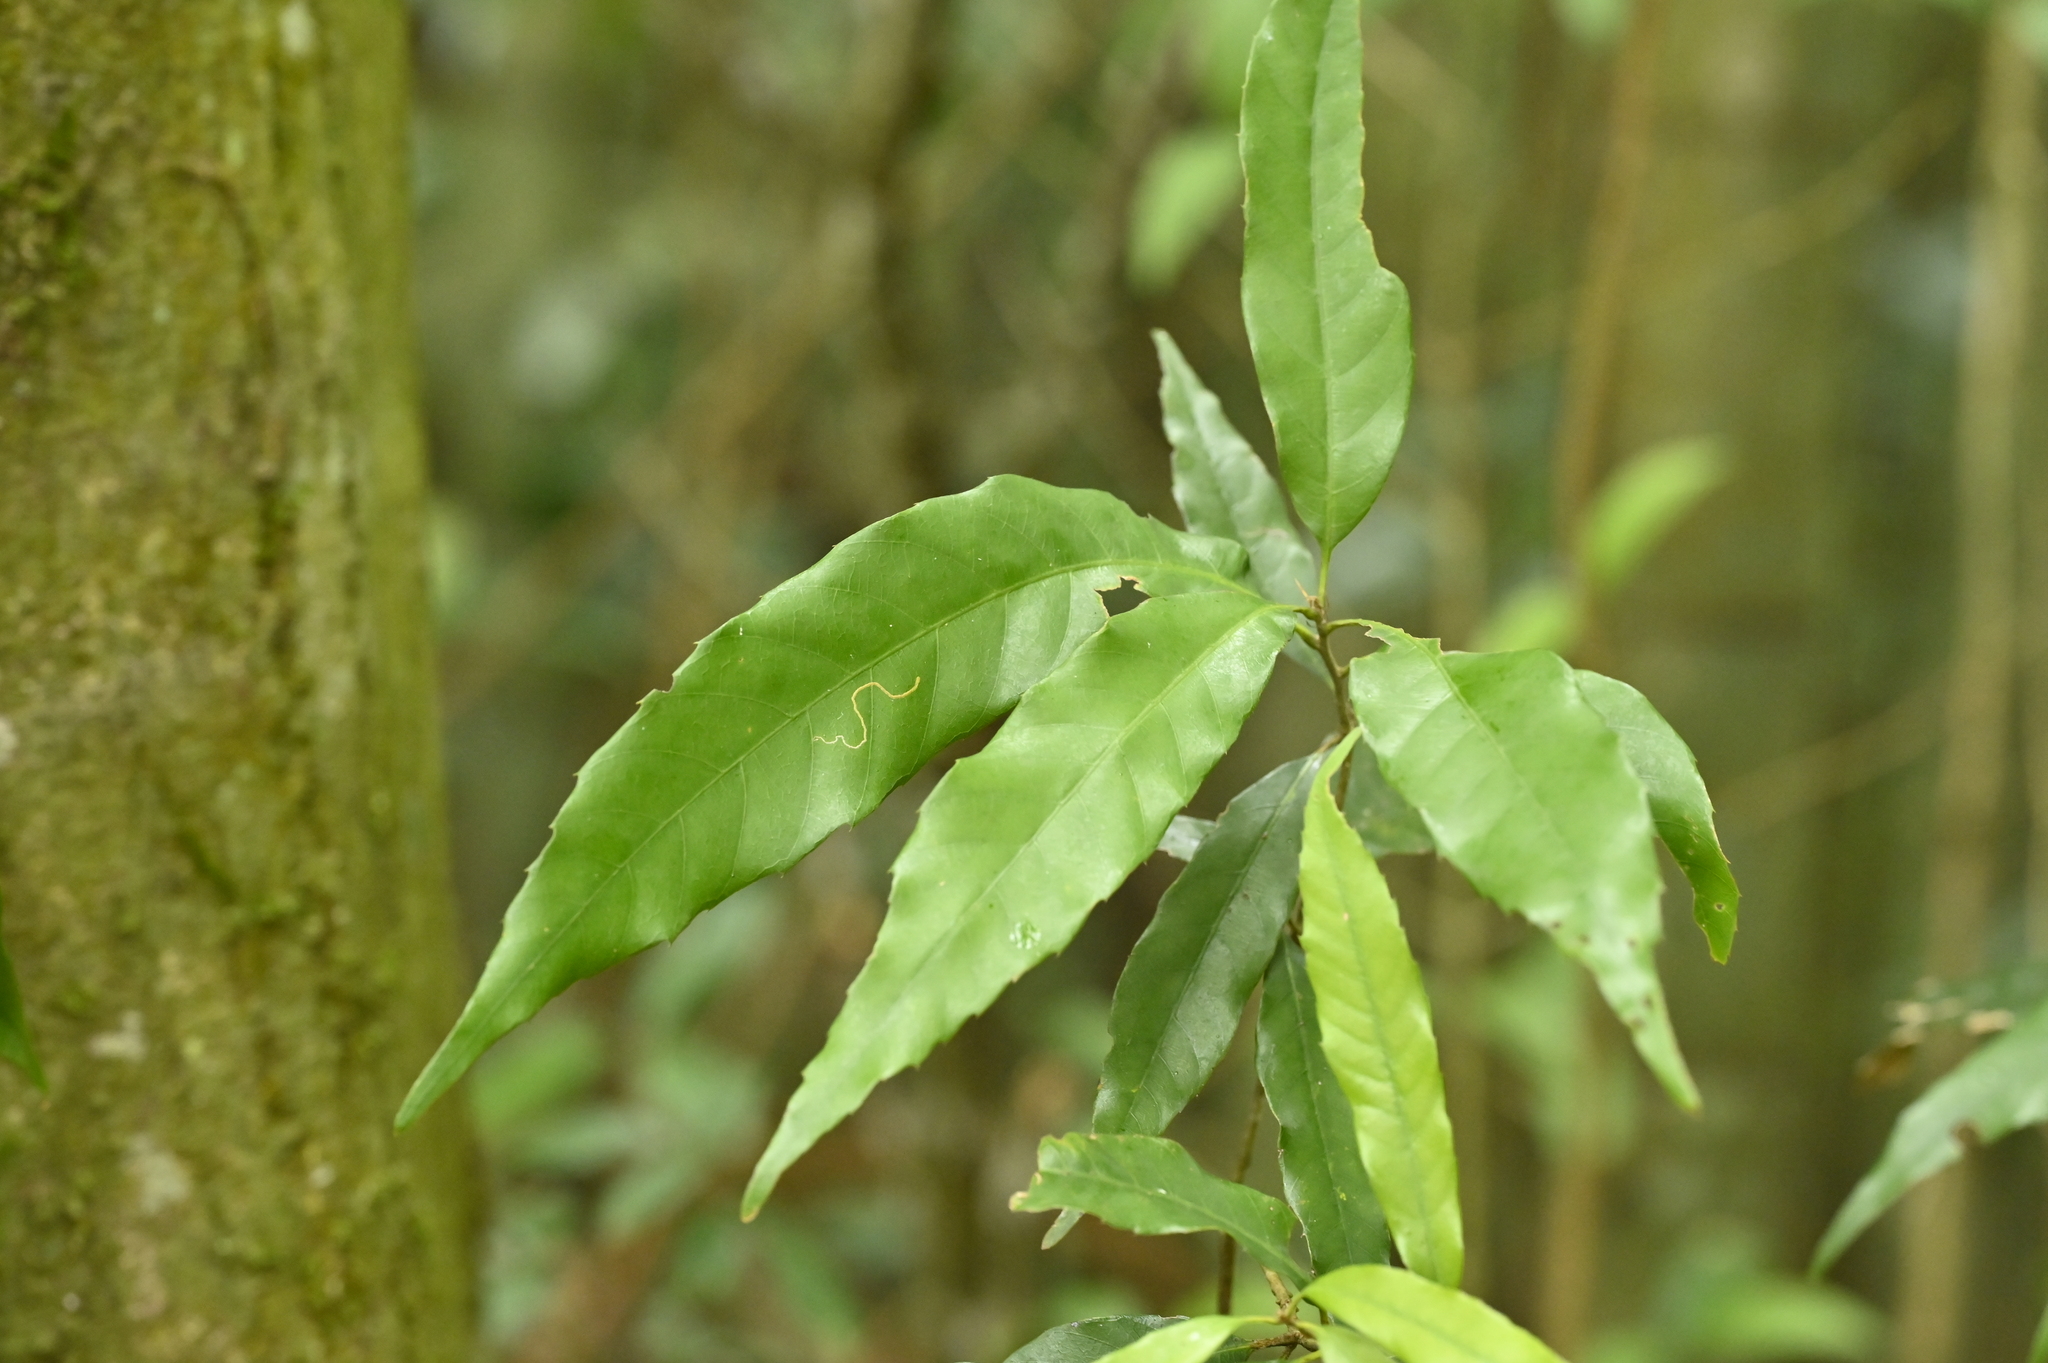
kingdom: Plantae
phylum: Tracheophyta
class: Magnoliopsida
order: Fagales
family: Fagaceae
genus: Quercus
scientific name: Quercus stenophylloides
